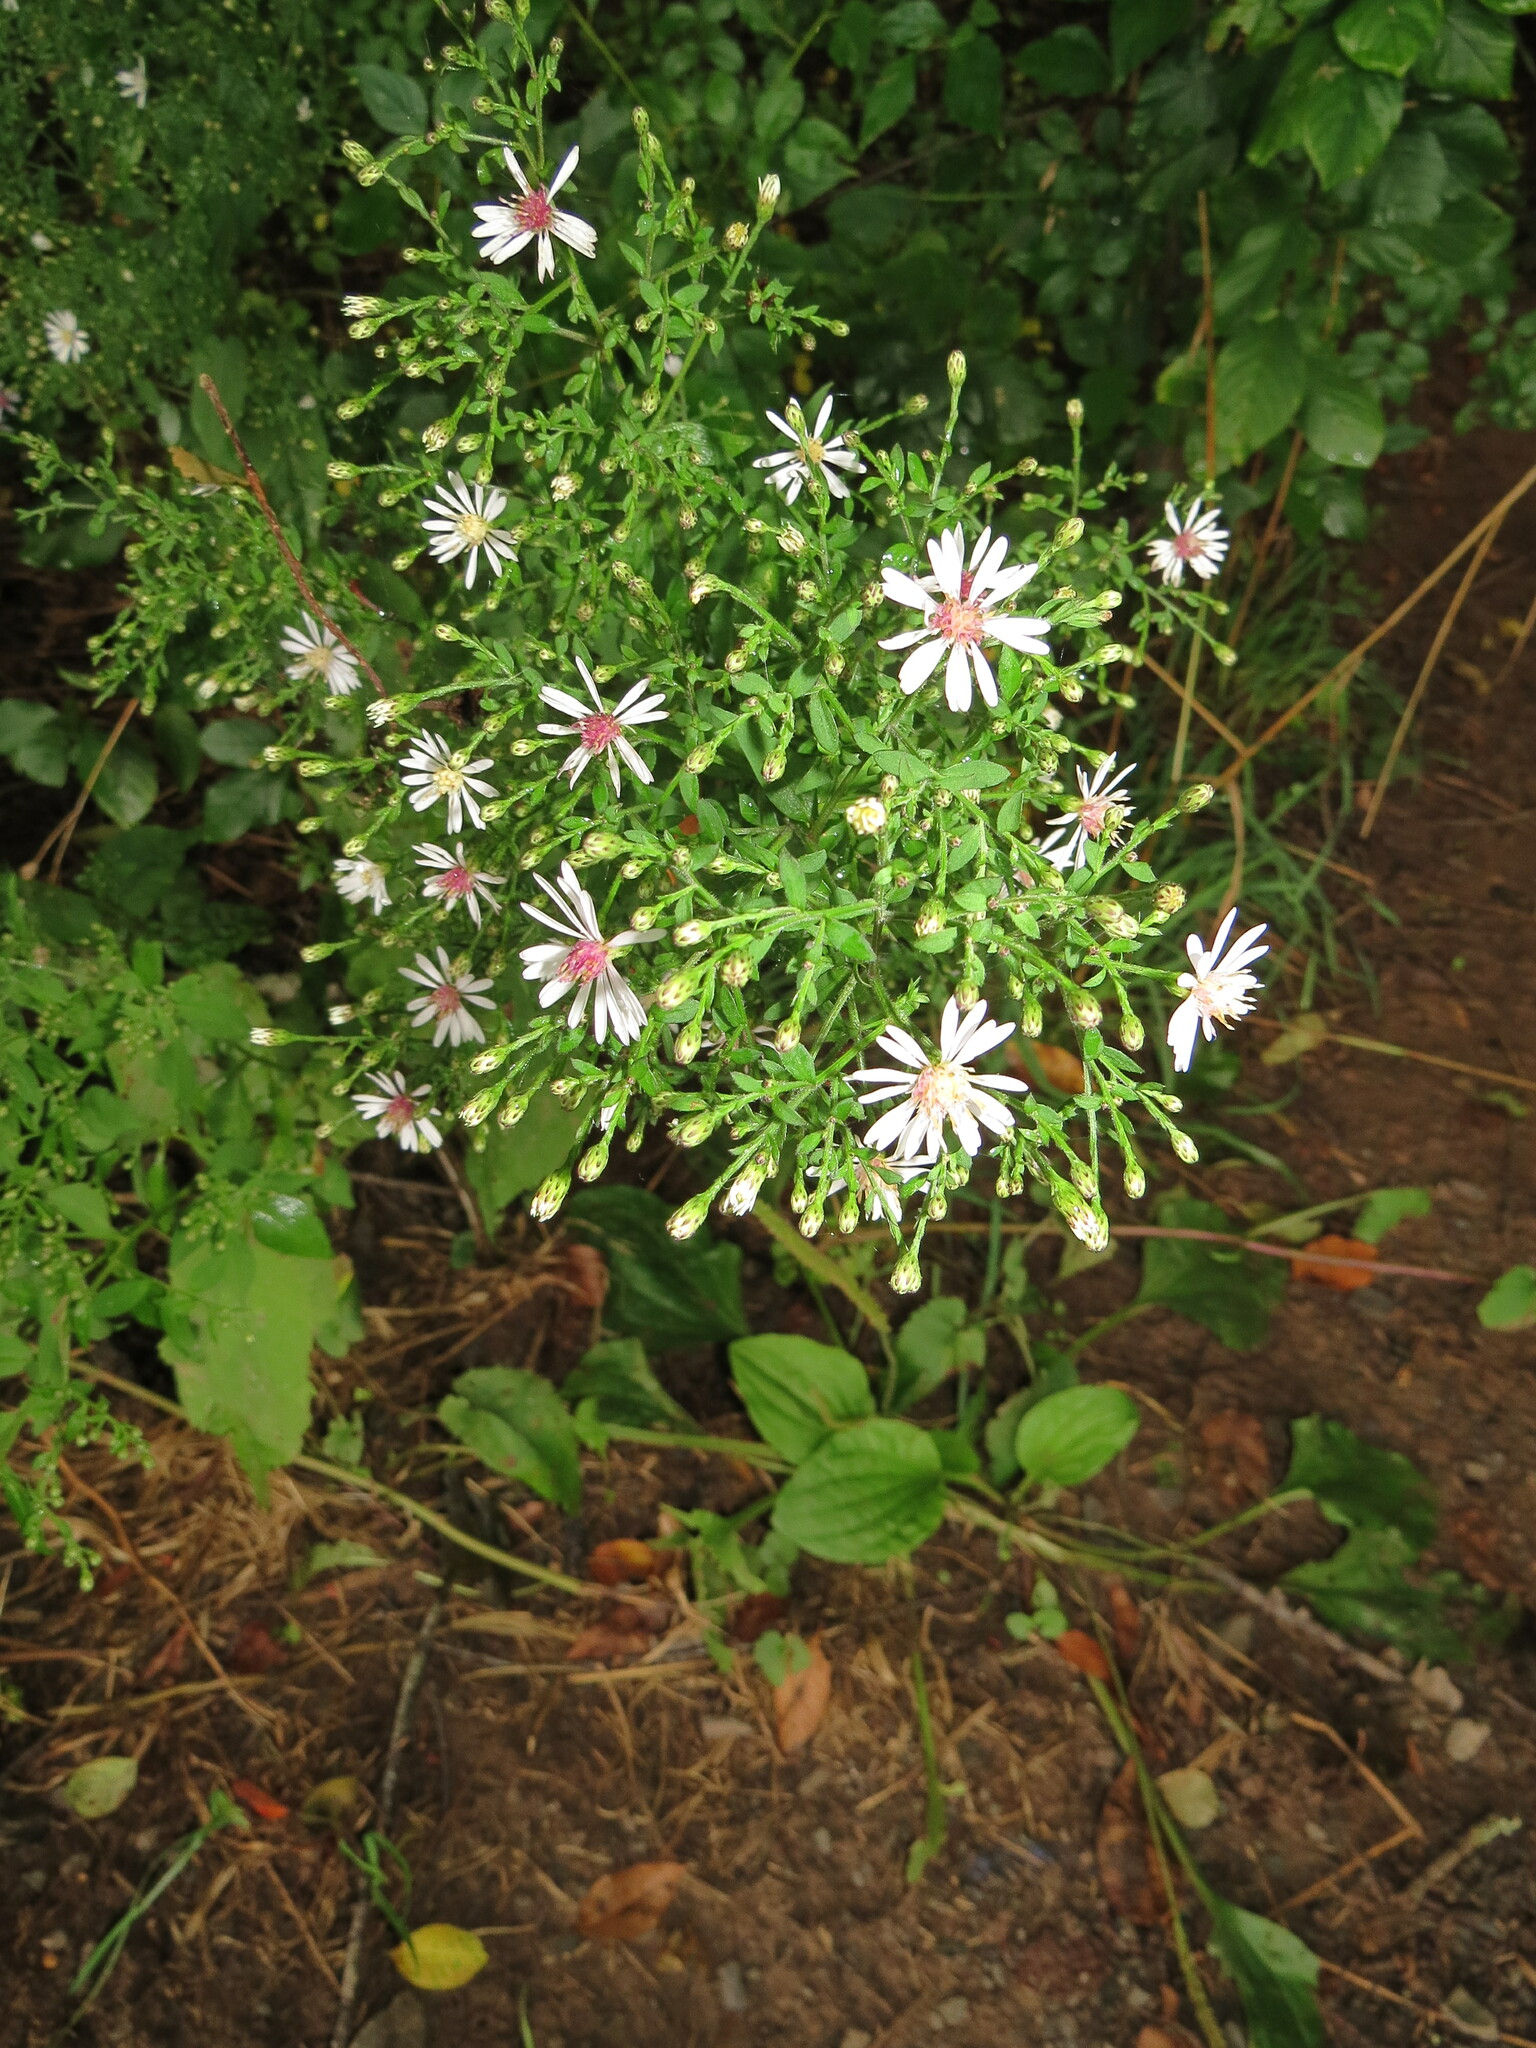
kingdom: Plantae
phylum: Tracheophyta
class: Magnoliopsida
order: Asterales
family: Asteraceae
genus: Symphyotrichum
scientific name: Symphyotrichum cordifolium
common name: Beeweed
